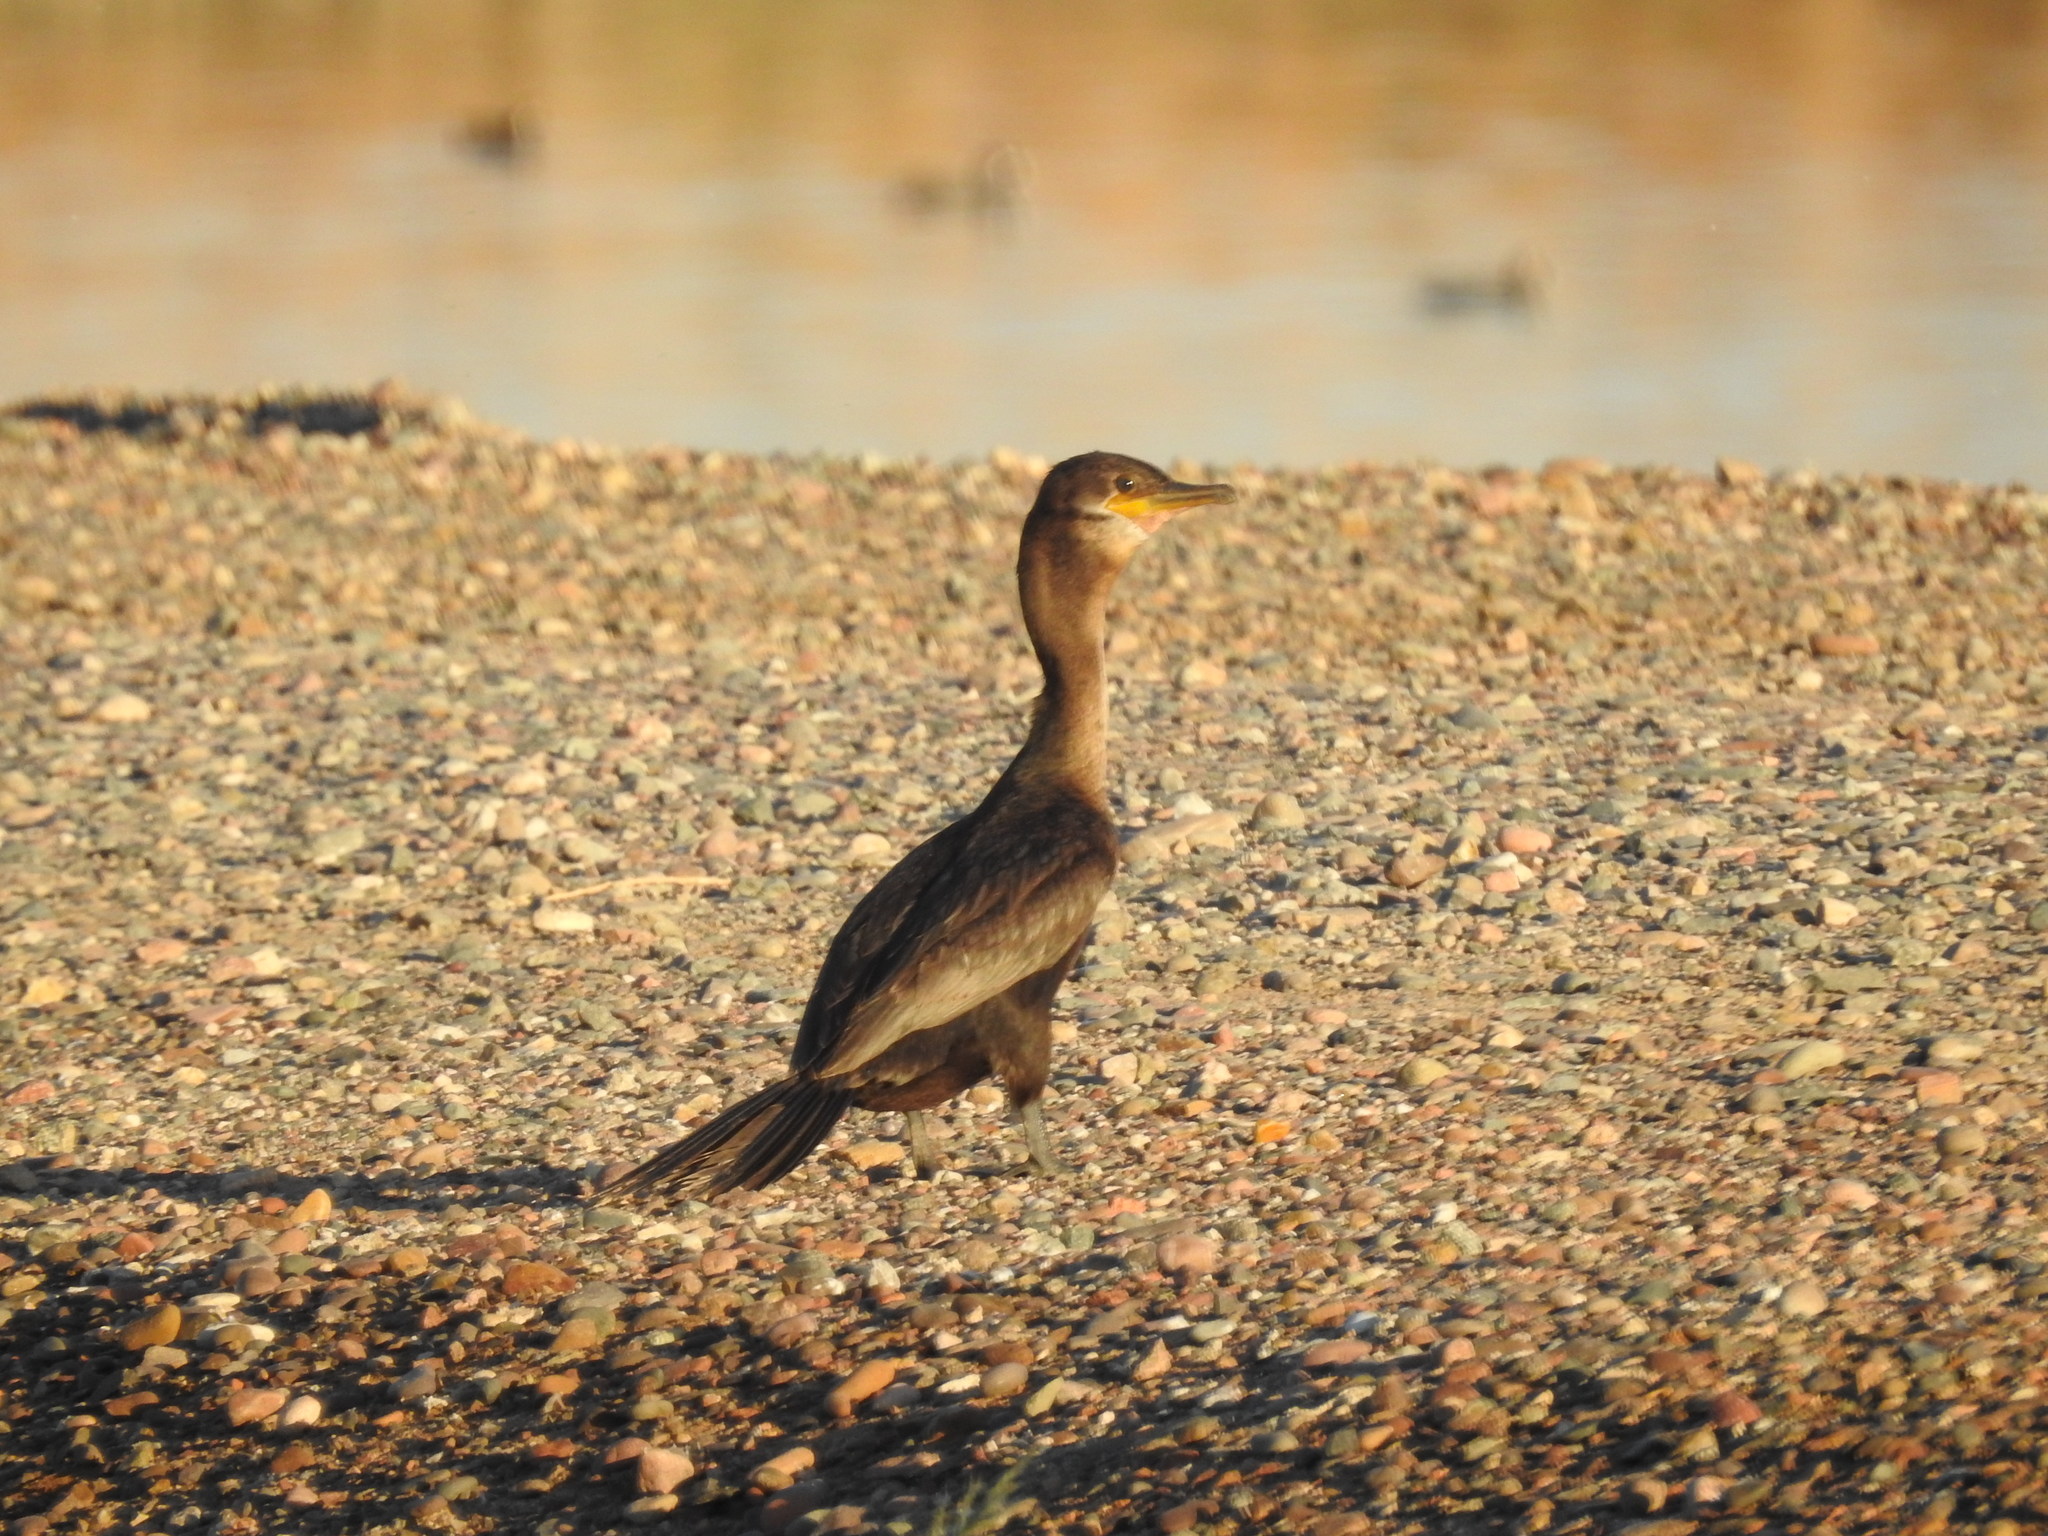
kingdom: Animalia
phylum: Chordata
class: Aves
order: Suliformes
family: Phalacrocoracidae
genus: Phalacrocorax
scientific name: Phalacrocorax brasilianus
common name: Neotropic cormorant
